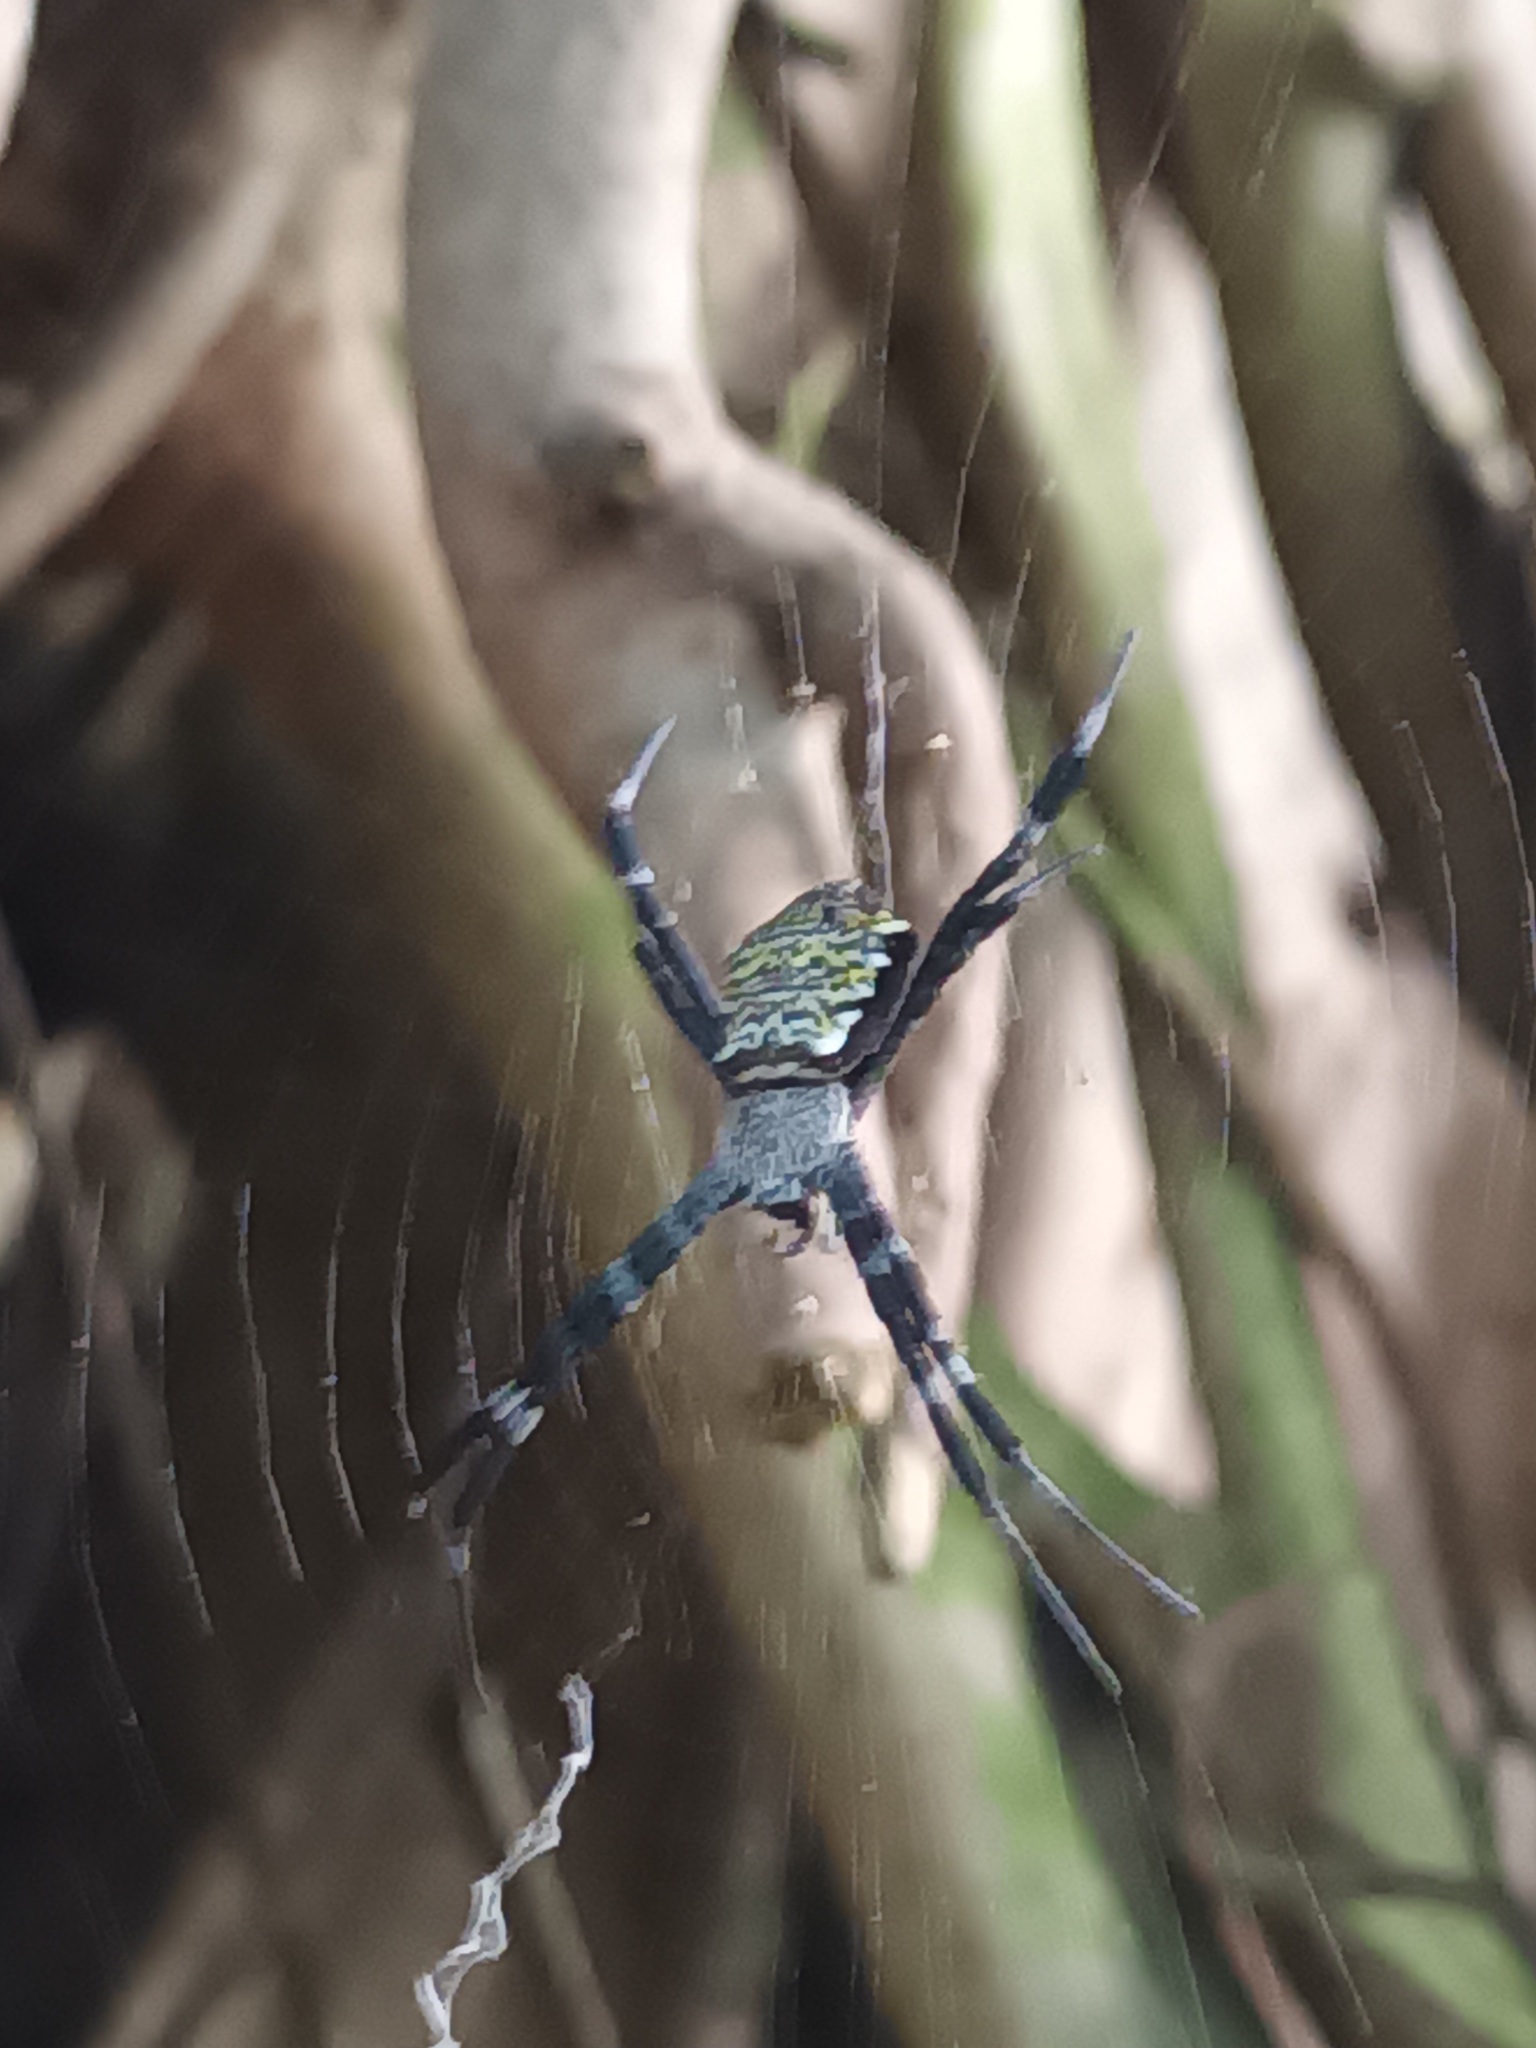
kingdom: Animalia
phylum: Arthropoda
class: Arachnida
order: Araneae
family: Araneidae
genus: Argiope
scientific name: Argiope appensa
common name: Garden spider
